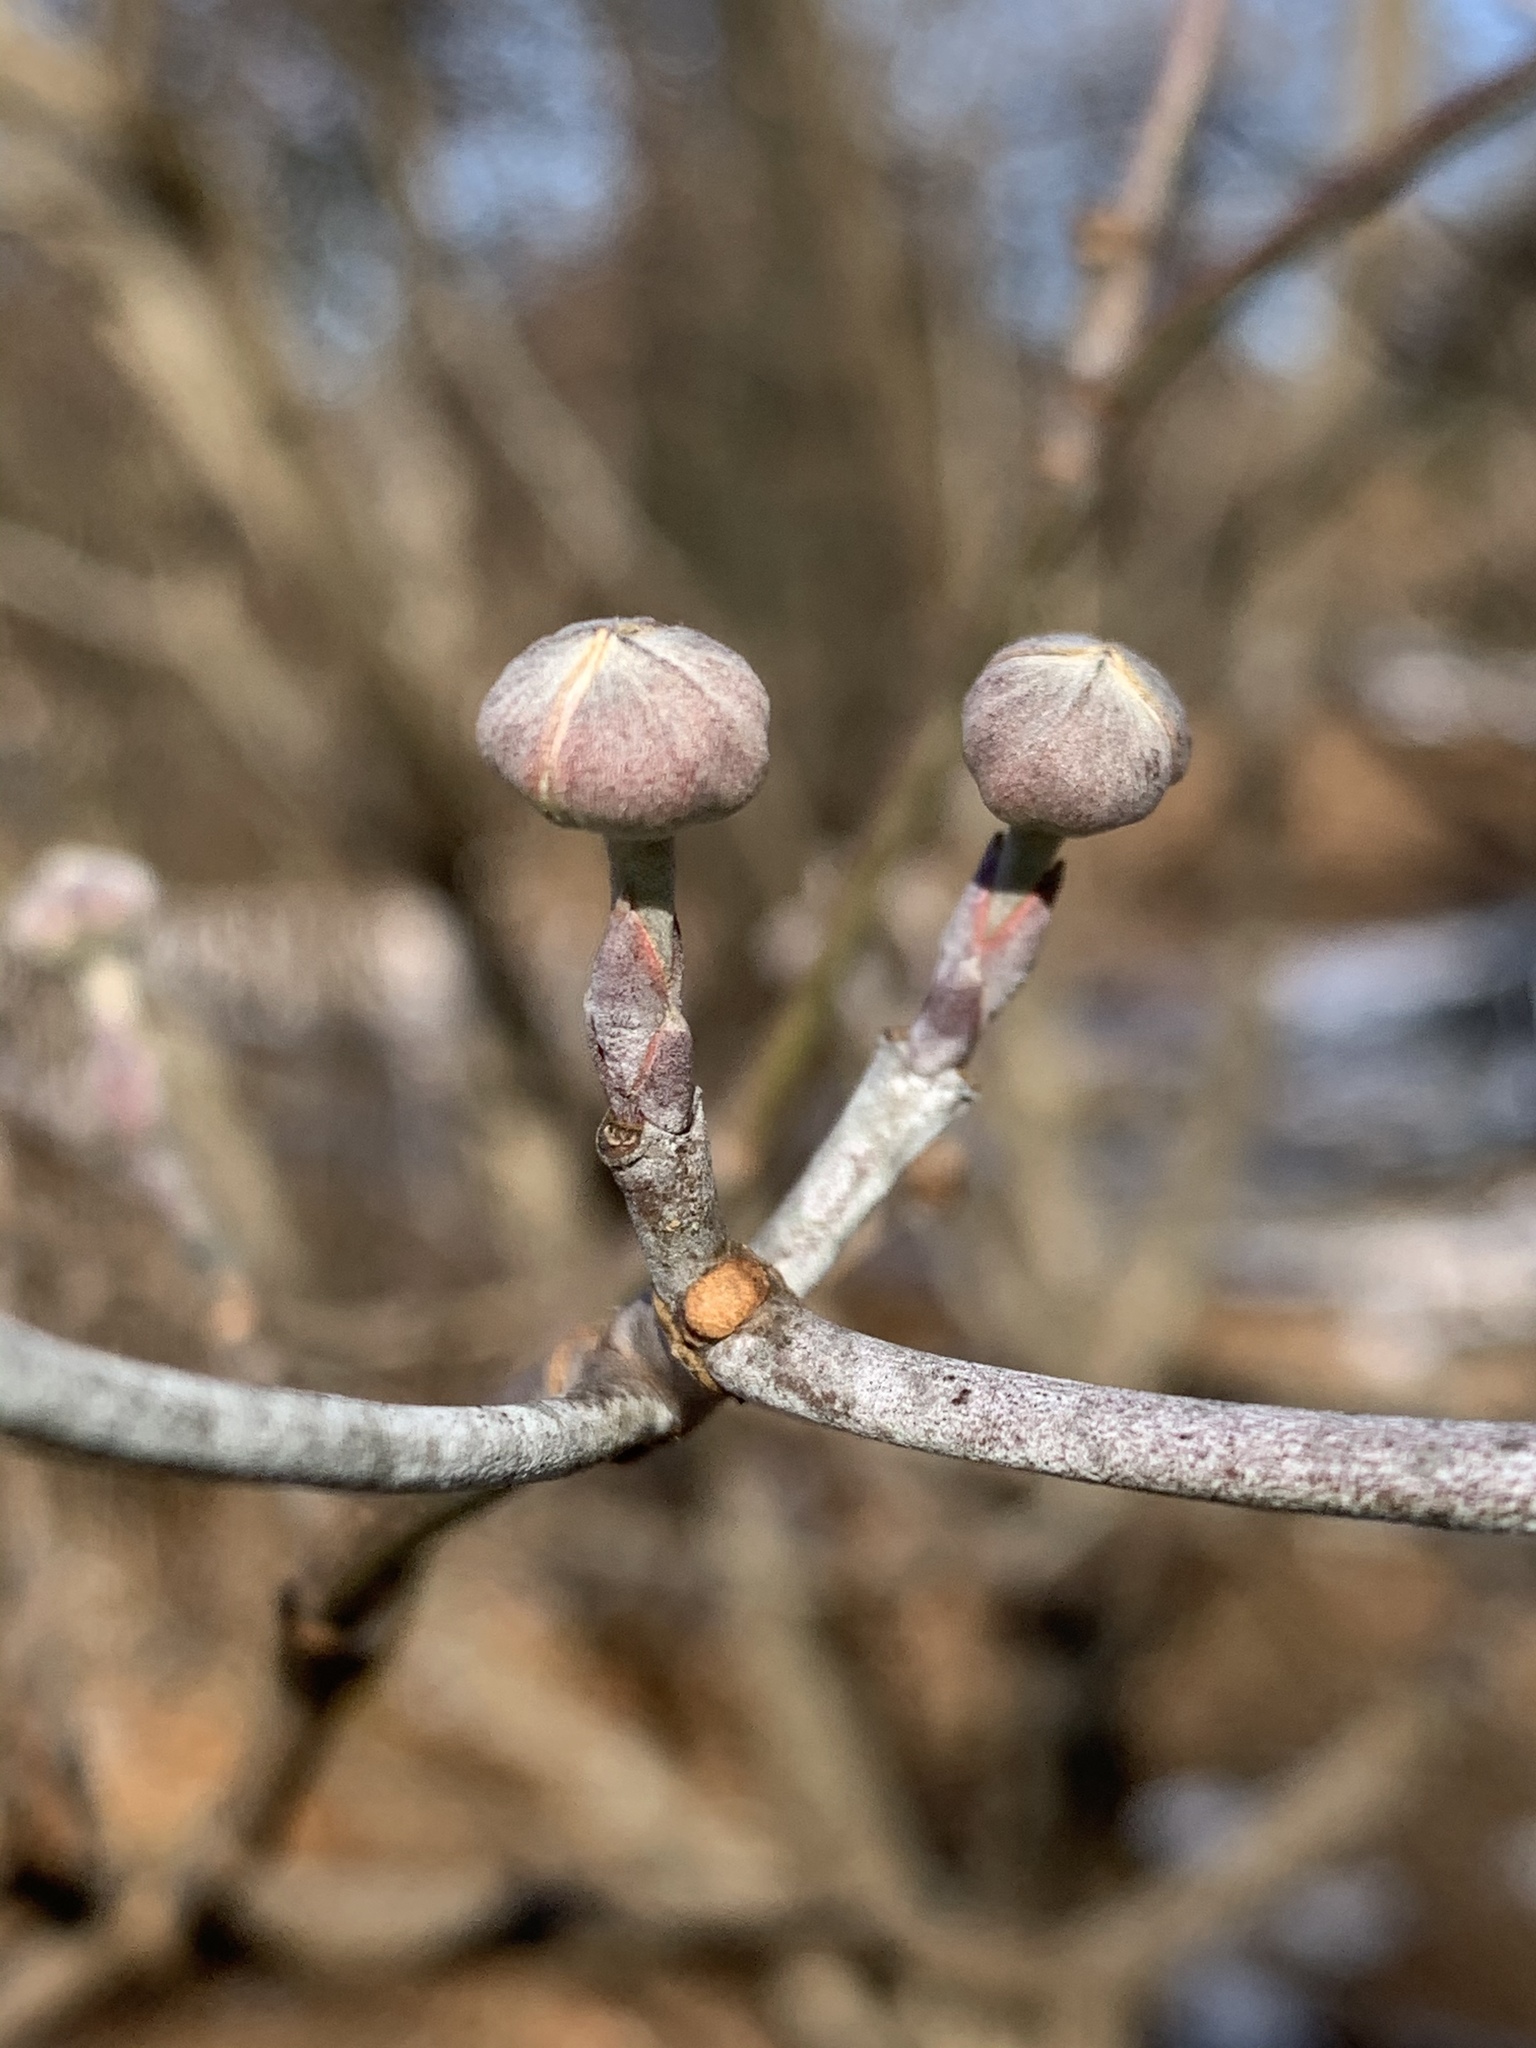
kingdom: Plantae
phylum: Tracheophyta
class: Magnoliopsida
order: Cornales
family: Cornaceae
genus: Cornus
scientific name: Cornus florida
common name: Flowering dogwood
